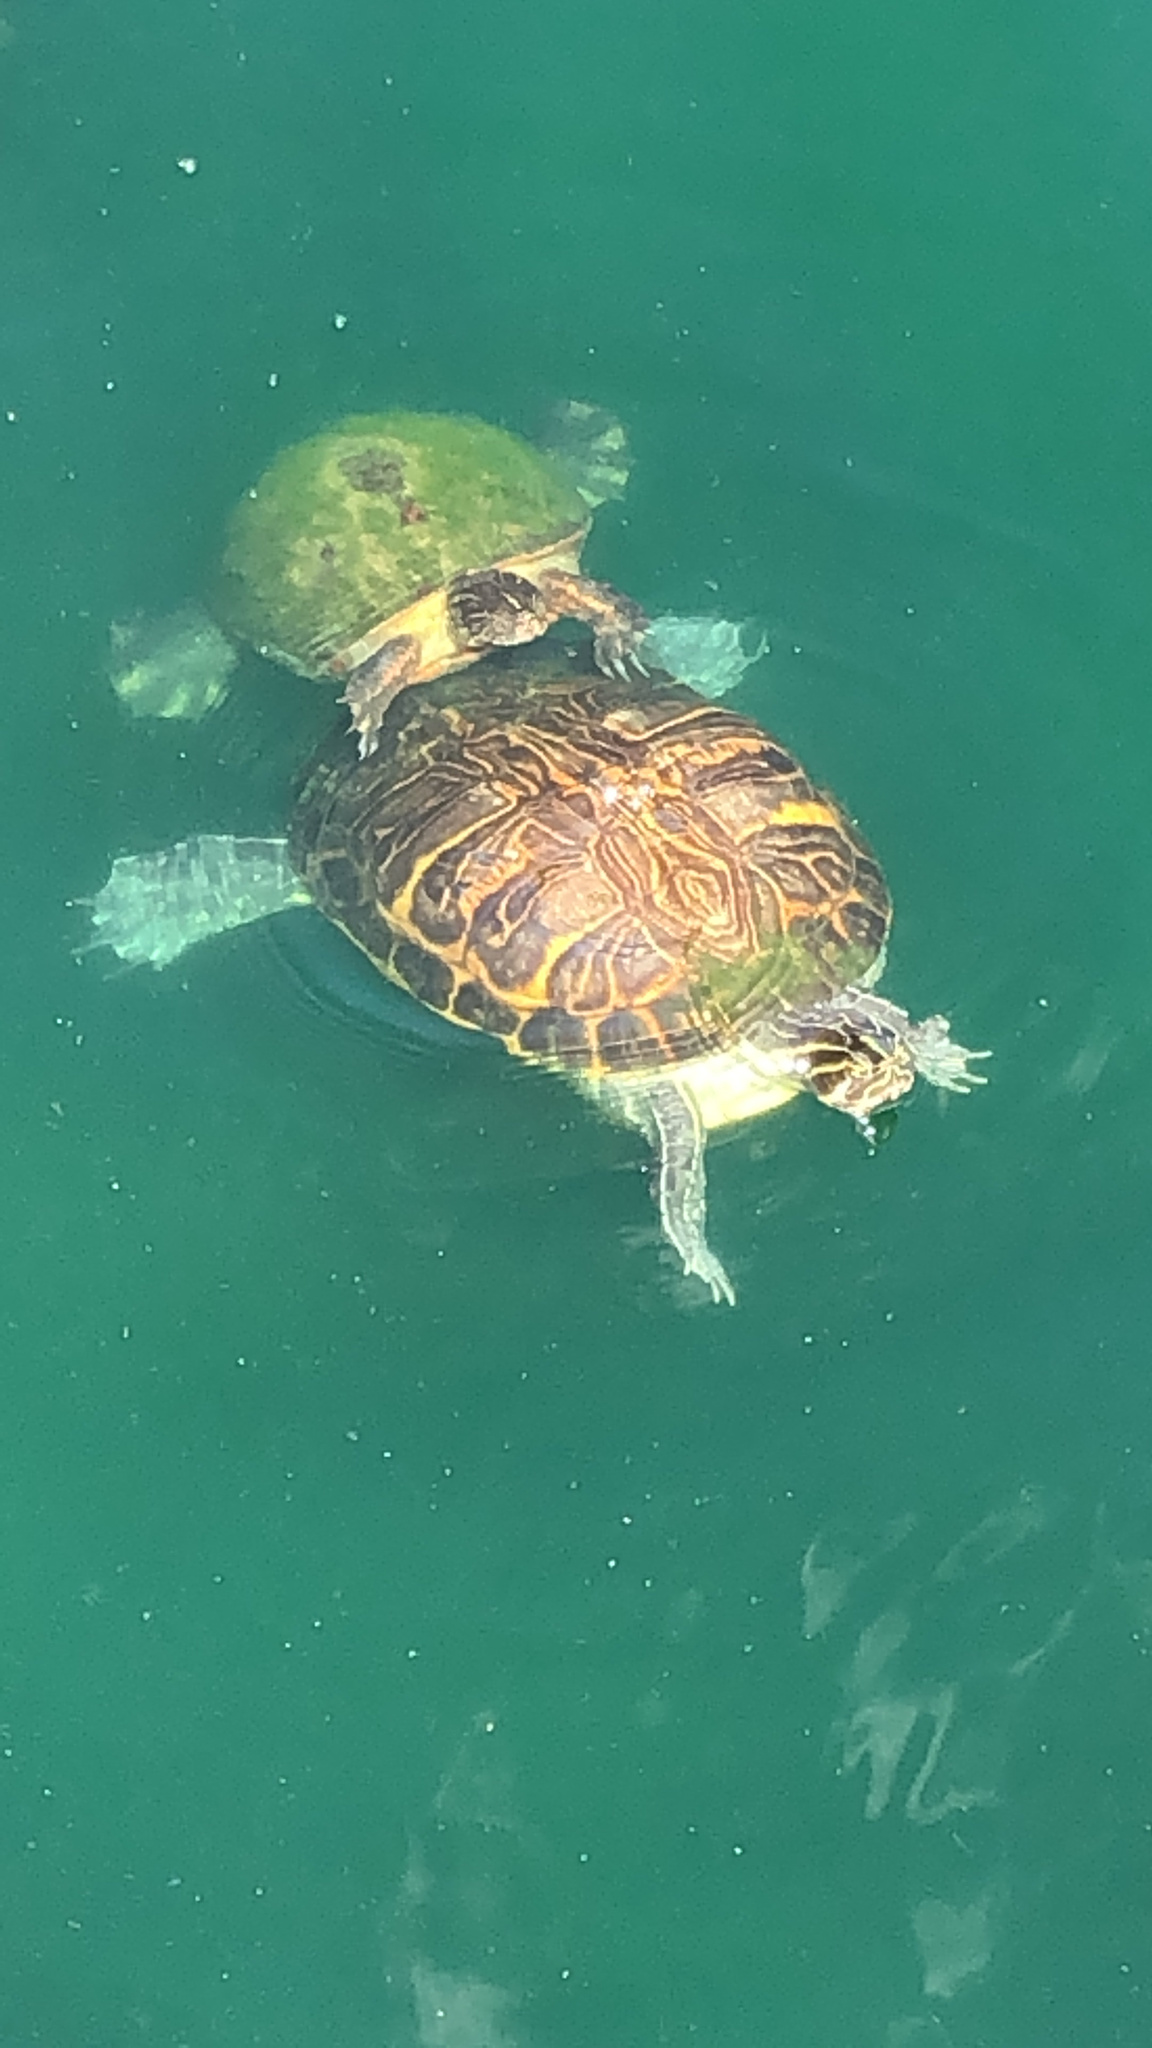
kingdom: Animalia
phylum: Chordata
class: Testudines
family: Emydidae
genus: Pseudemys
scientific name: Pseudemys peninsularis
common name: Peninsula cooter
